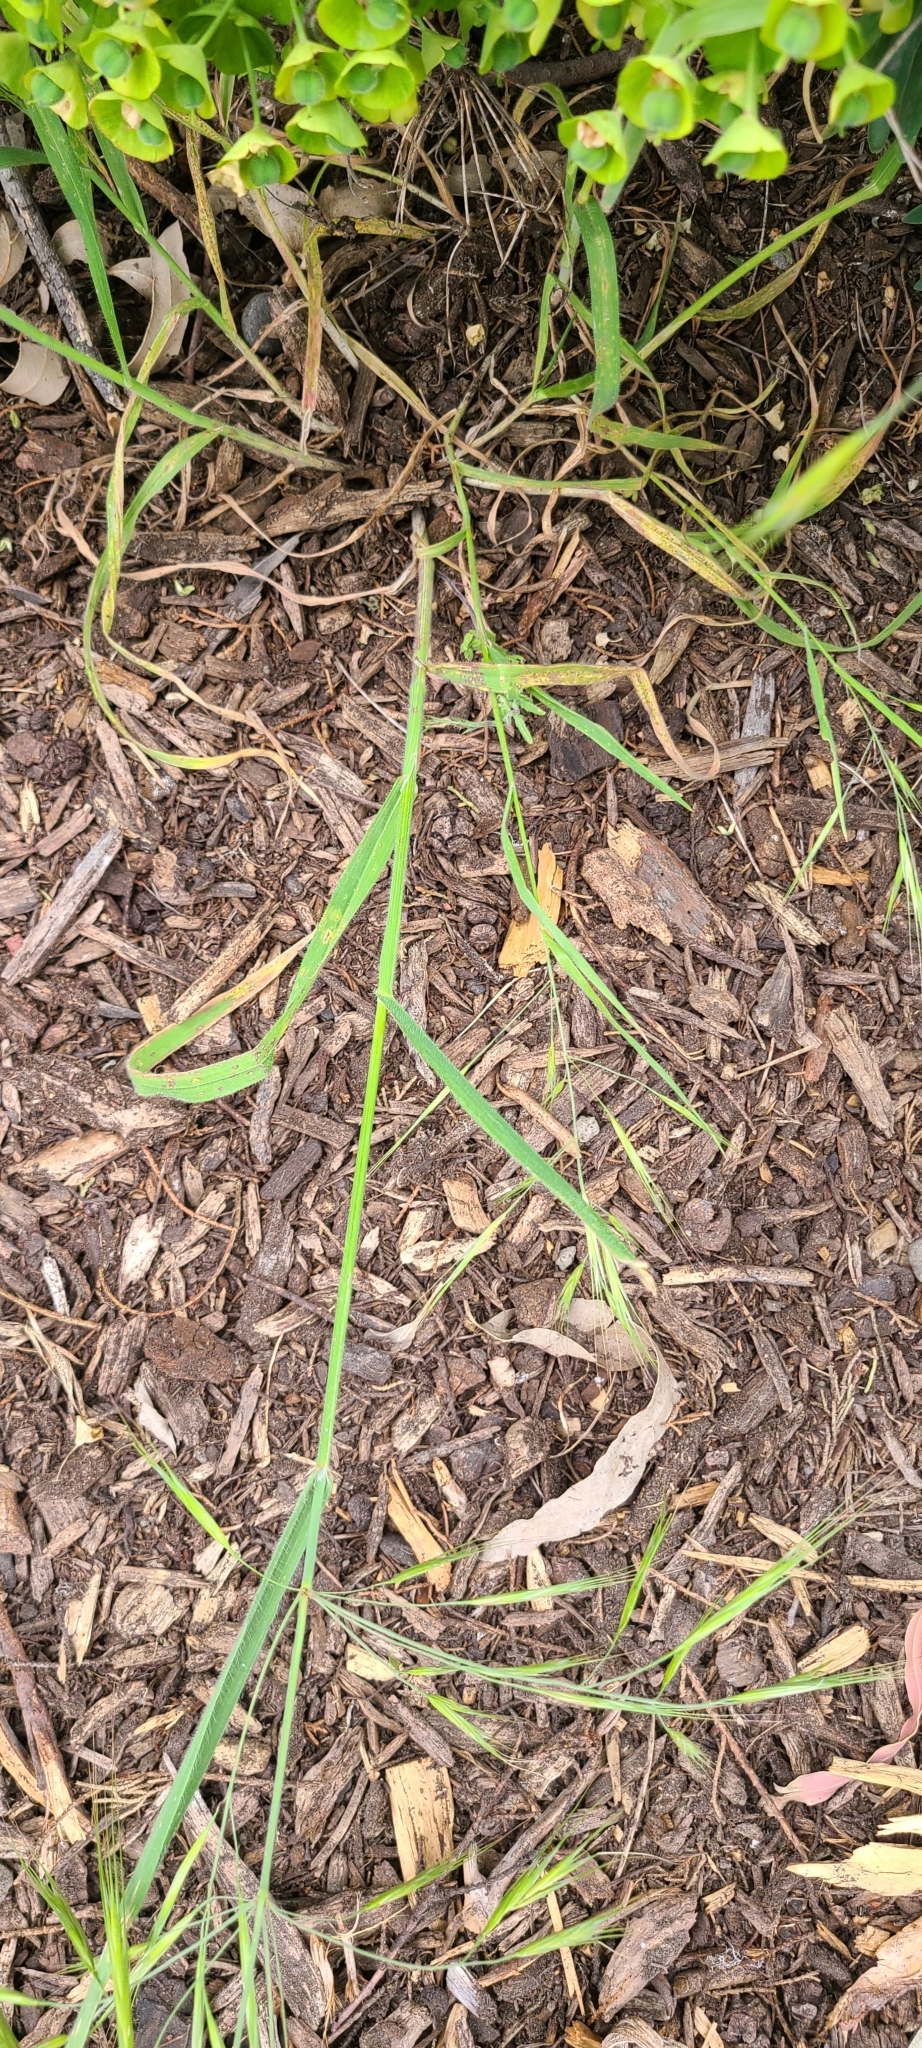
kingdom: Plantae
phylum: Tracheophyta
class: Liliopsida
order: Poales
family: Poaceae
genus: Bromus
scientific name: Bromus diandrus
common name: Ripgut brome
